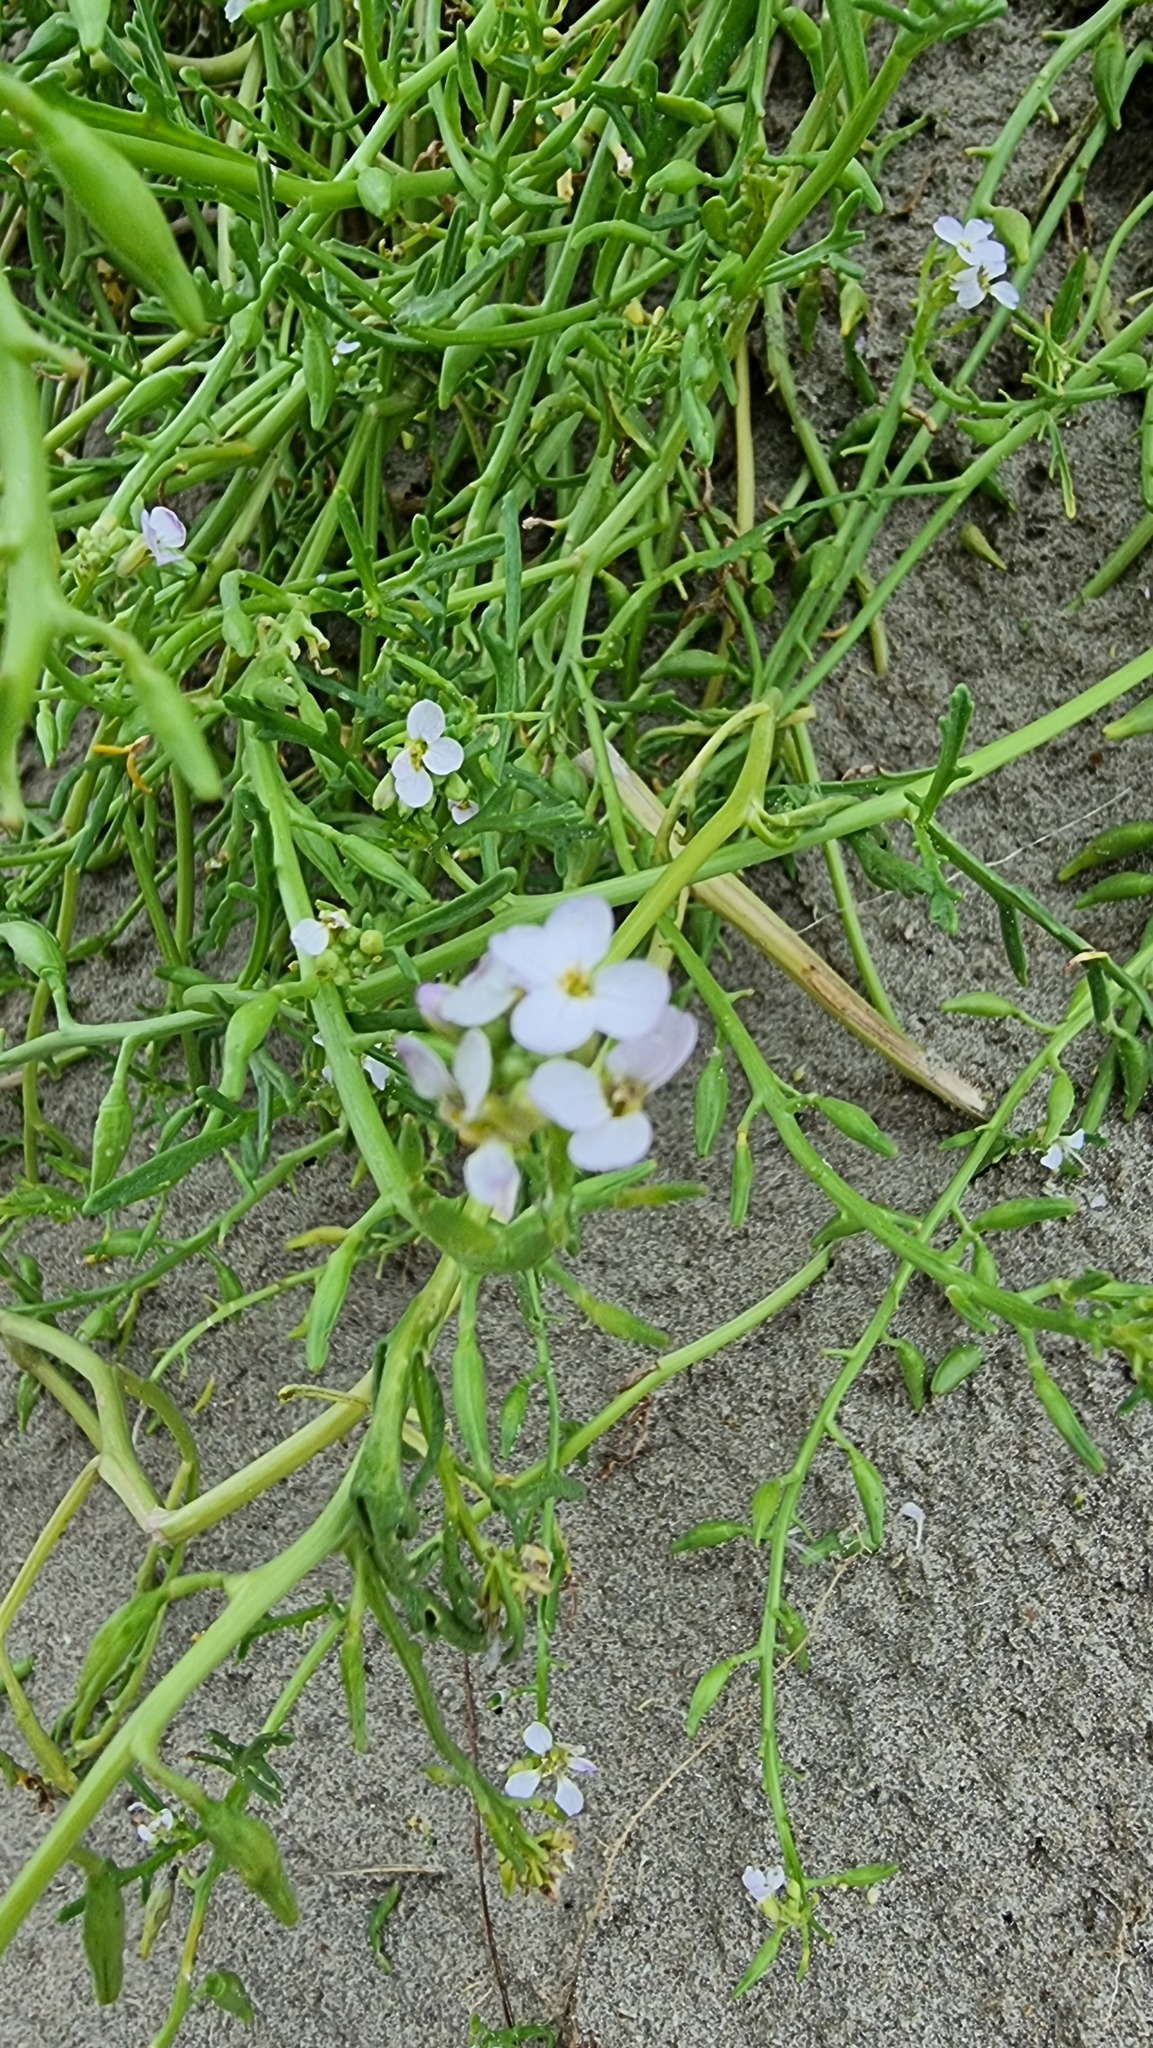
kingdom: Plantae
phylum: Tracheophyta
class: Magnoliopsida
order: Brassicales
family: Brassicaceae
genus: Cakile
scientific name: Cakile maritima
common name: Sea rocket
